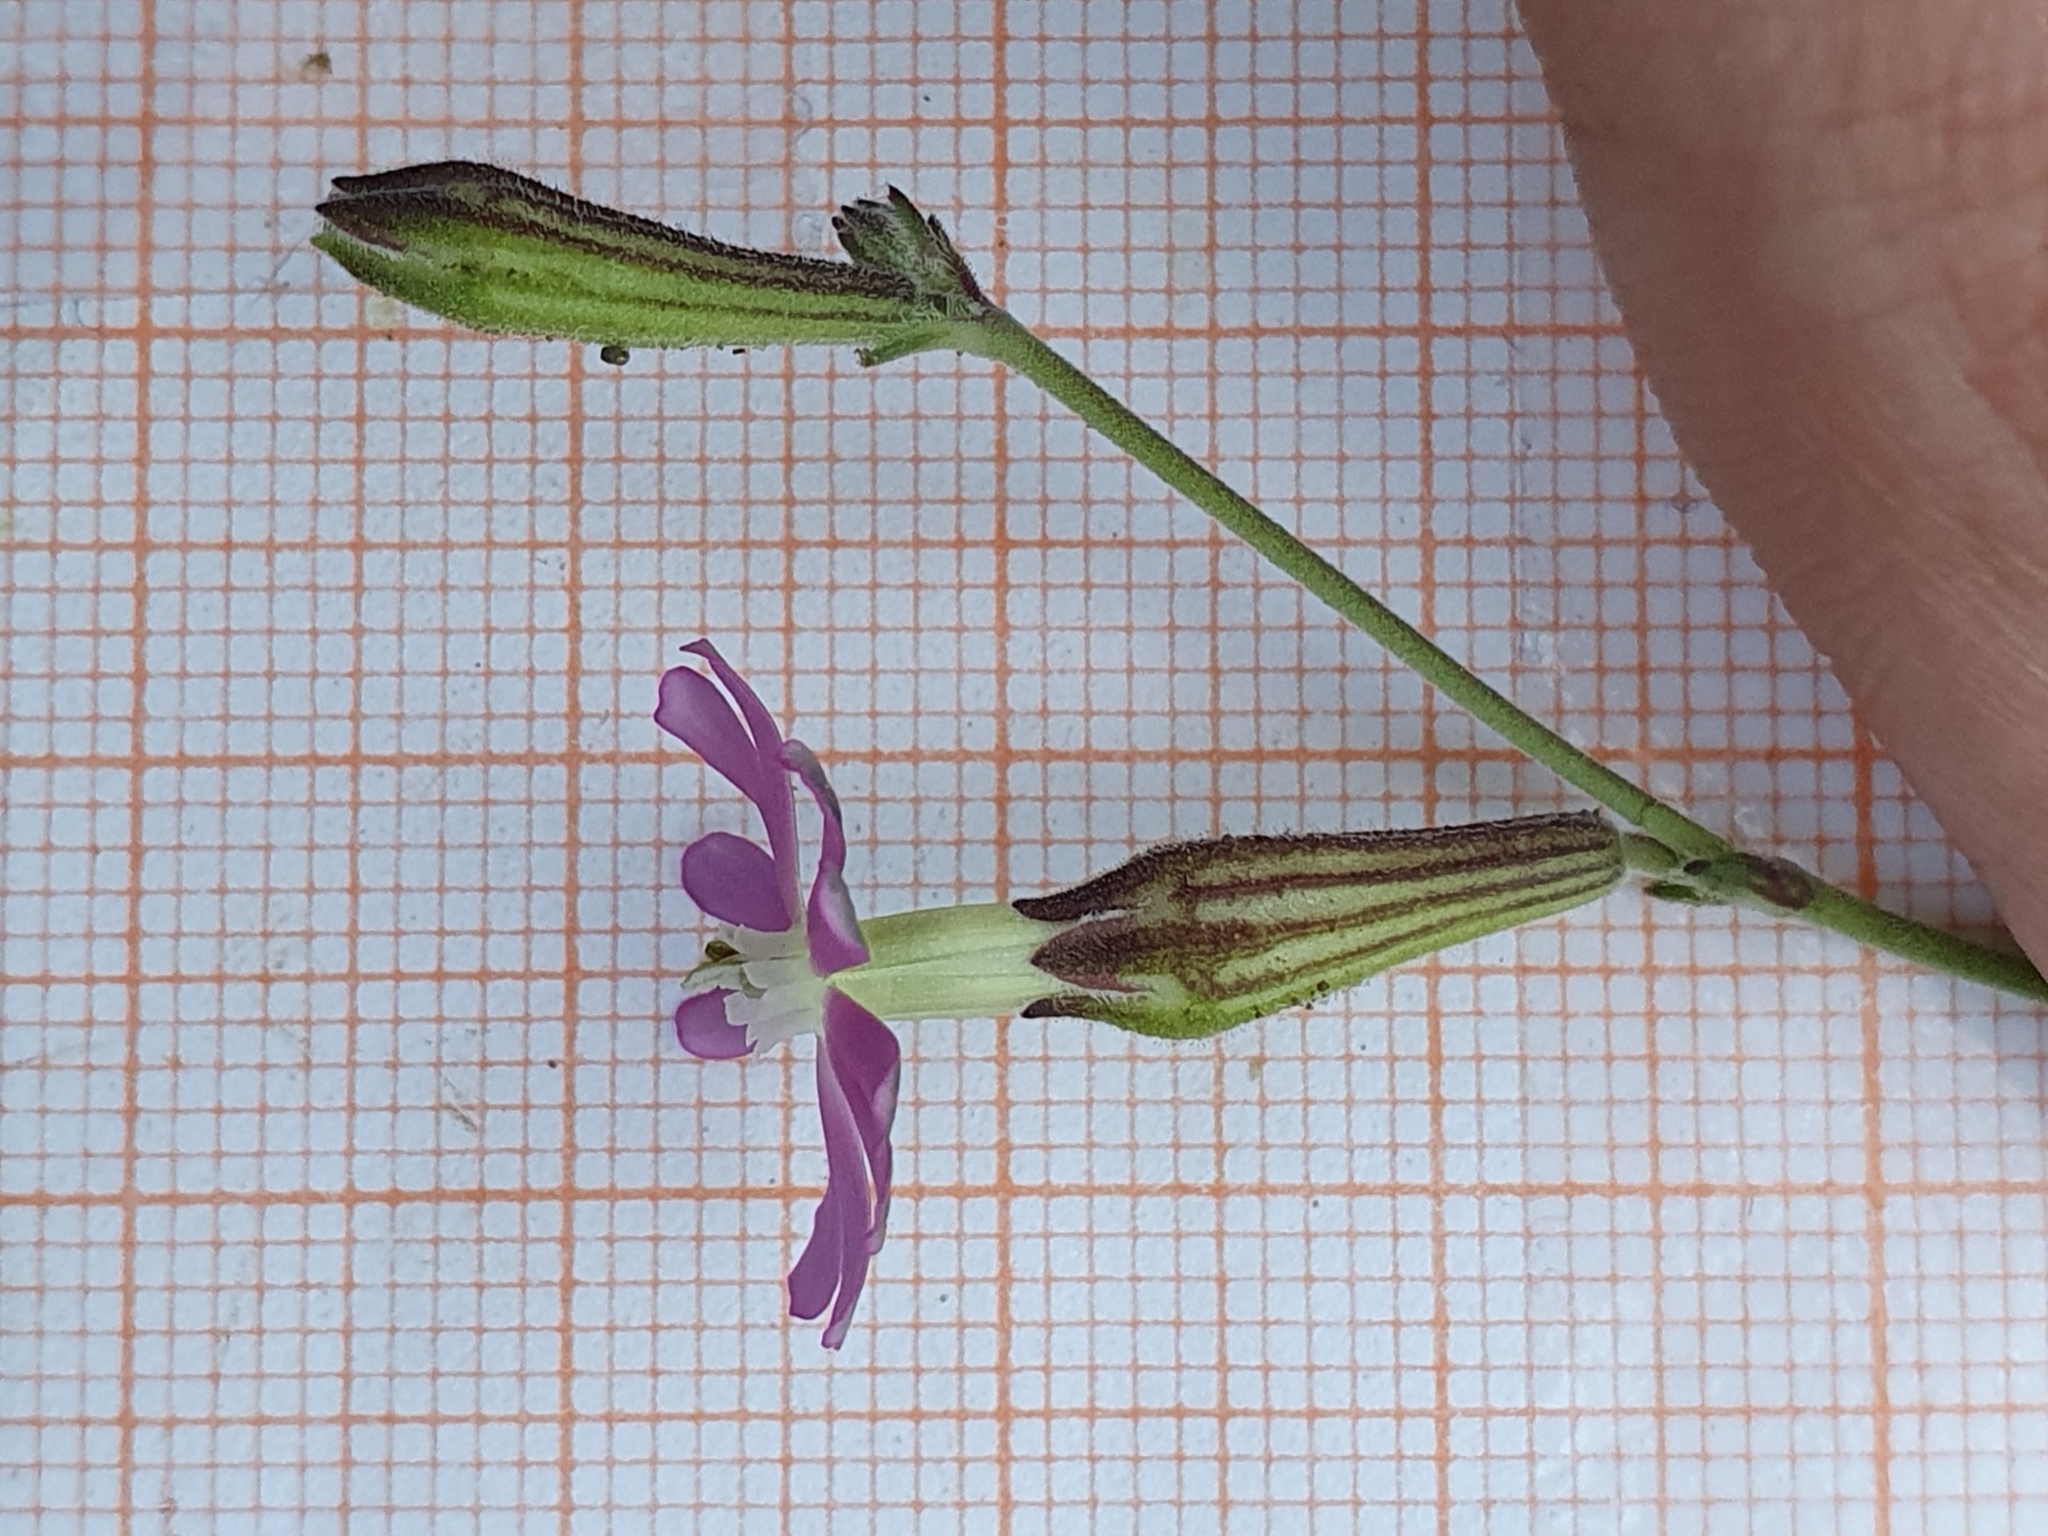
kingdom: Plantae
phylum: Tracheophyta
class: Magnoliopsida
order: Caryophyllales
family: Caryophyllaceae
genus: Silene
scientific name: Silene choulettii
